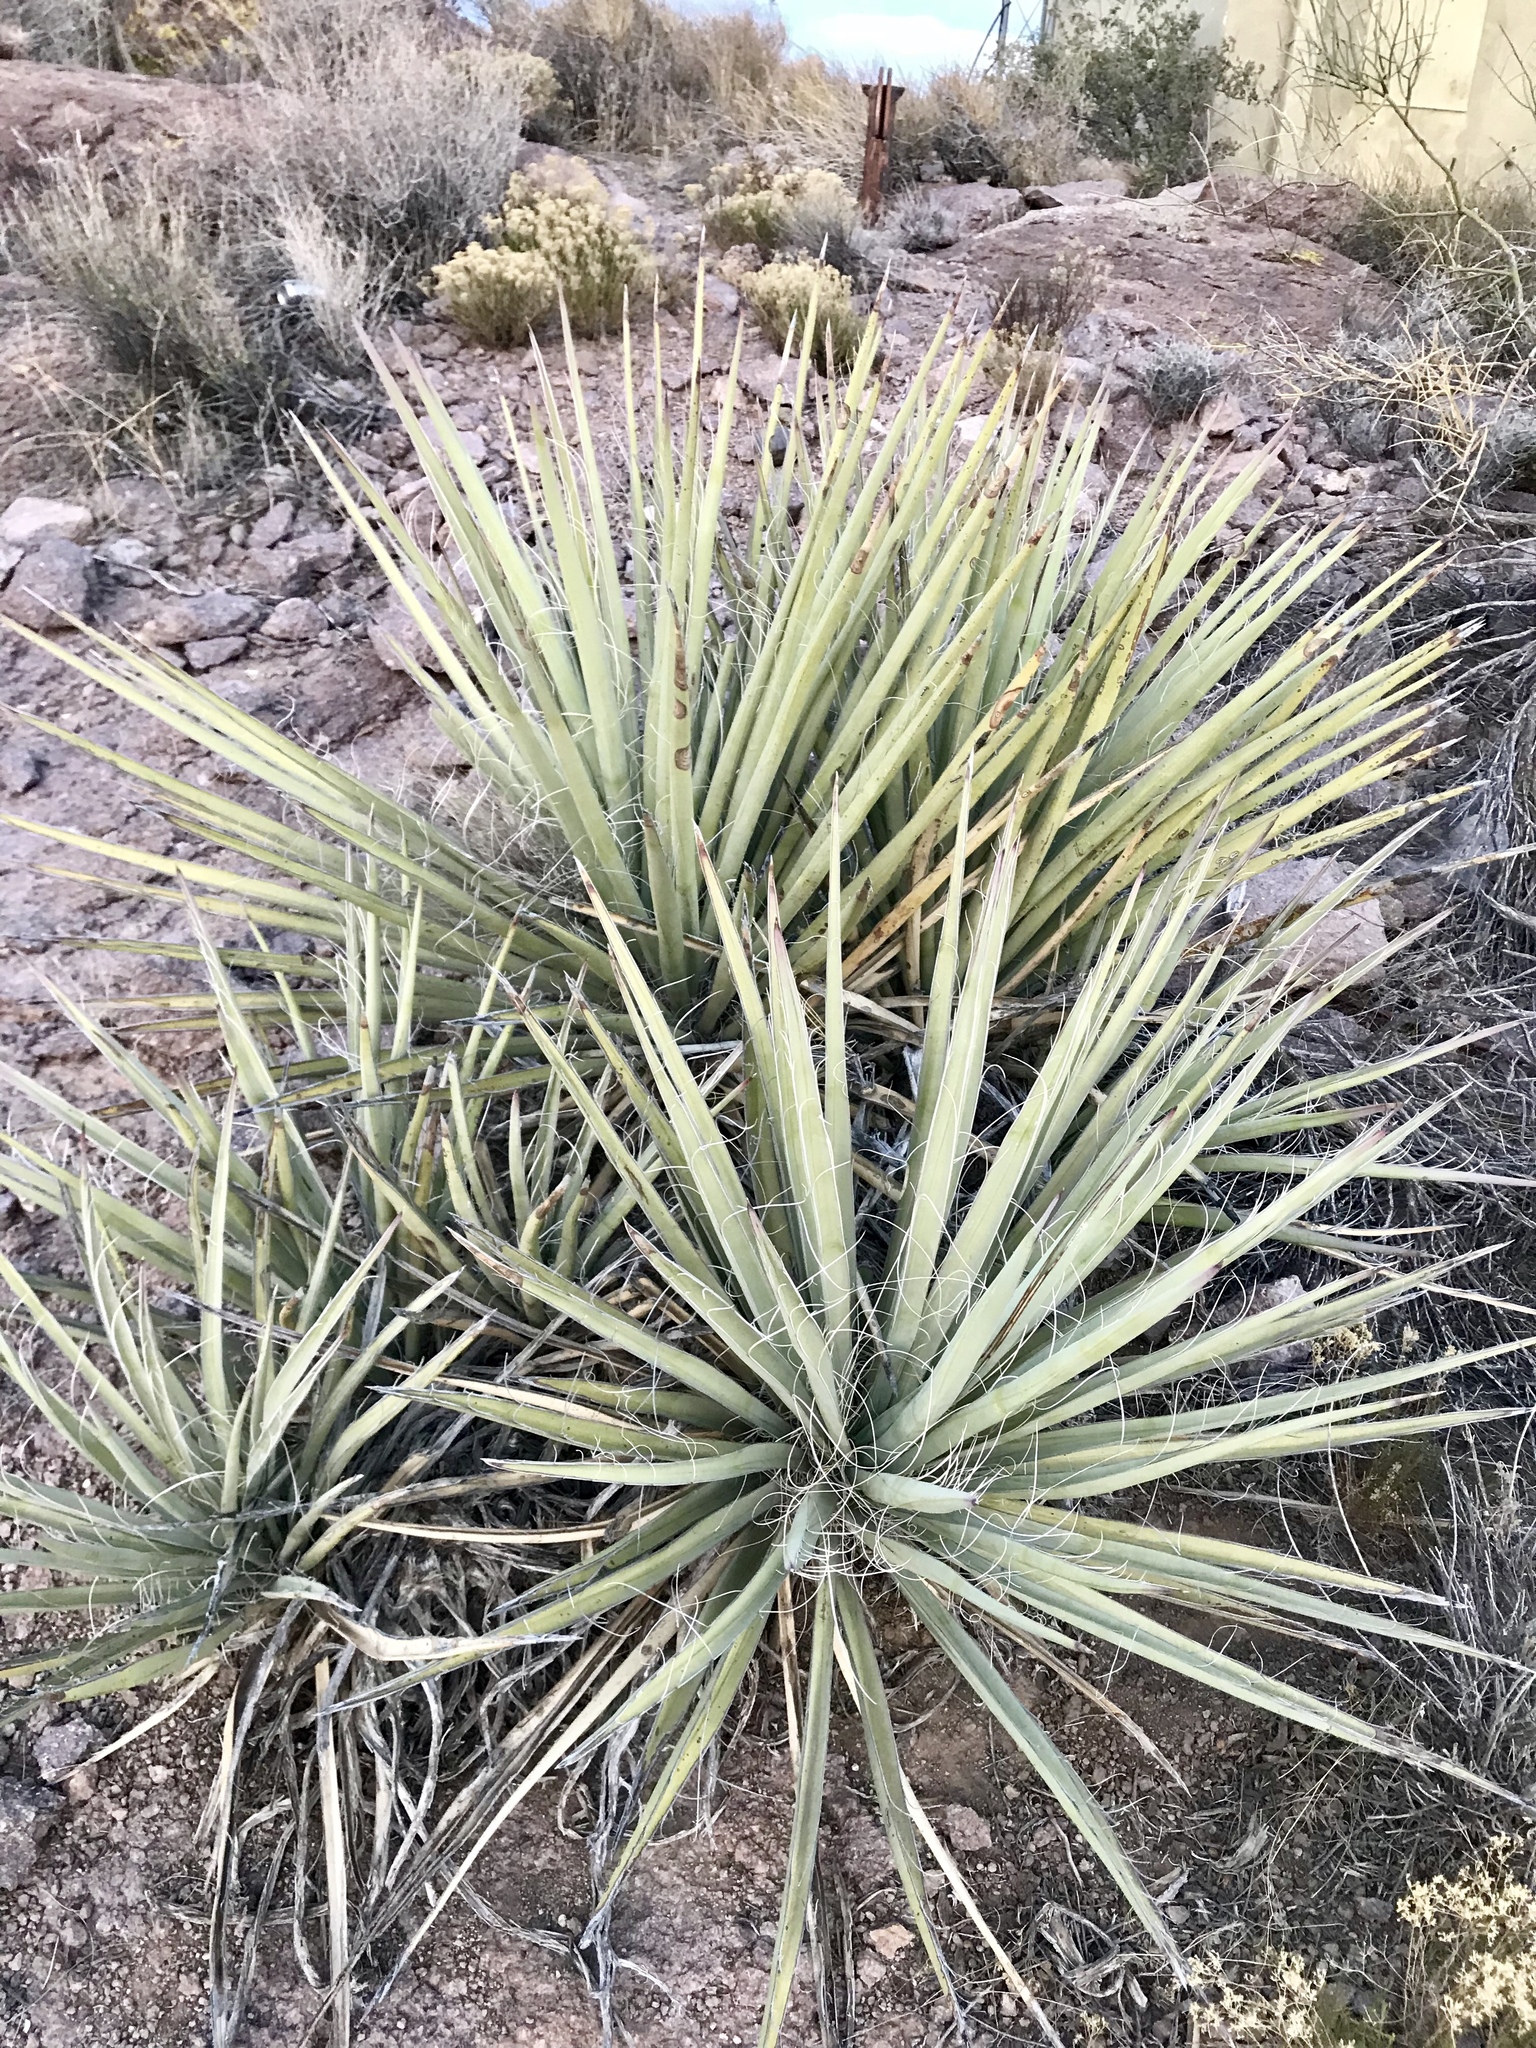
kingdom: Plantae
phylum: Tracheophyta
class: Liliopsida
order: Asparagales
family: Asparagaceae
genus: Yucca
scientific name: Yucca baccata
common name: Banana yucca
